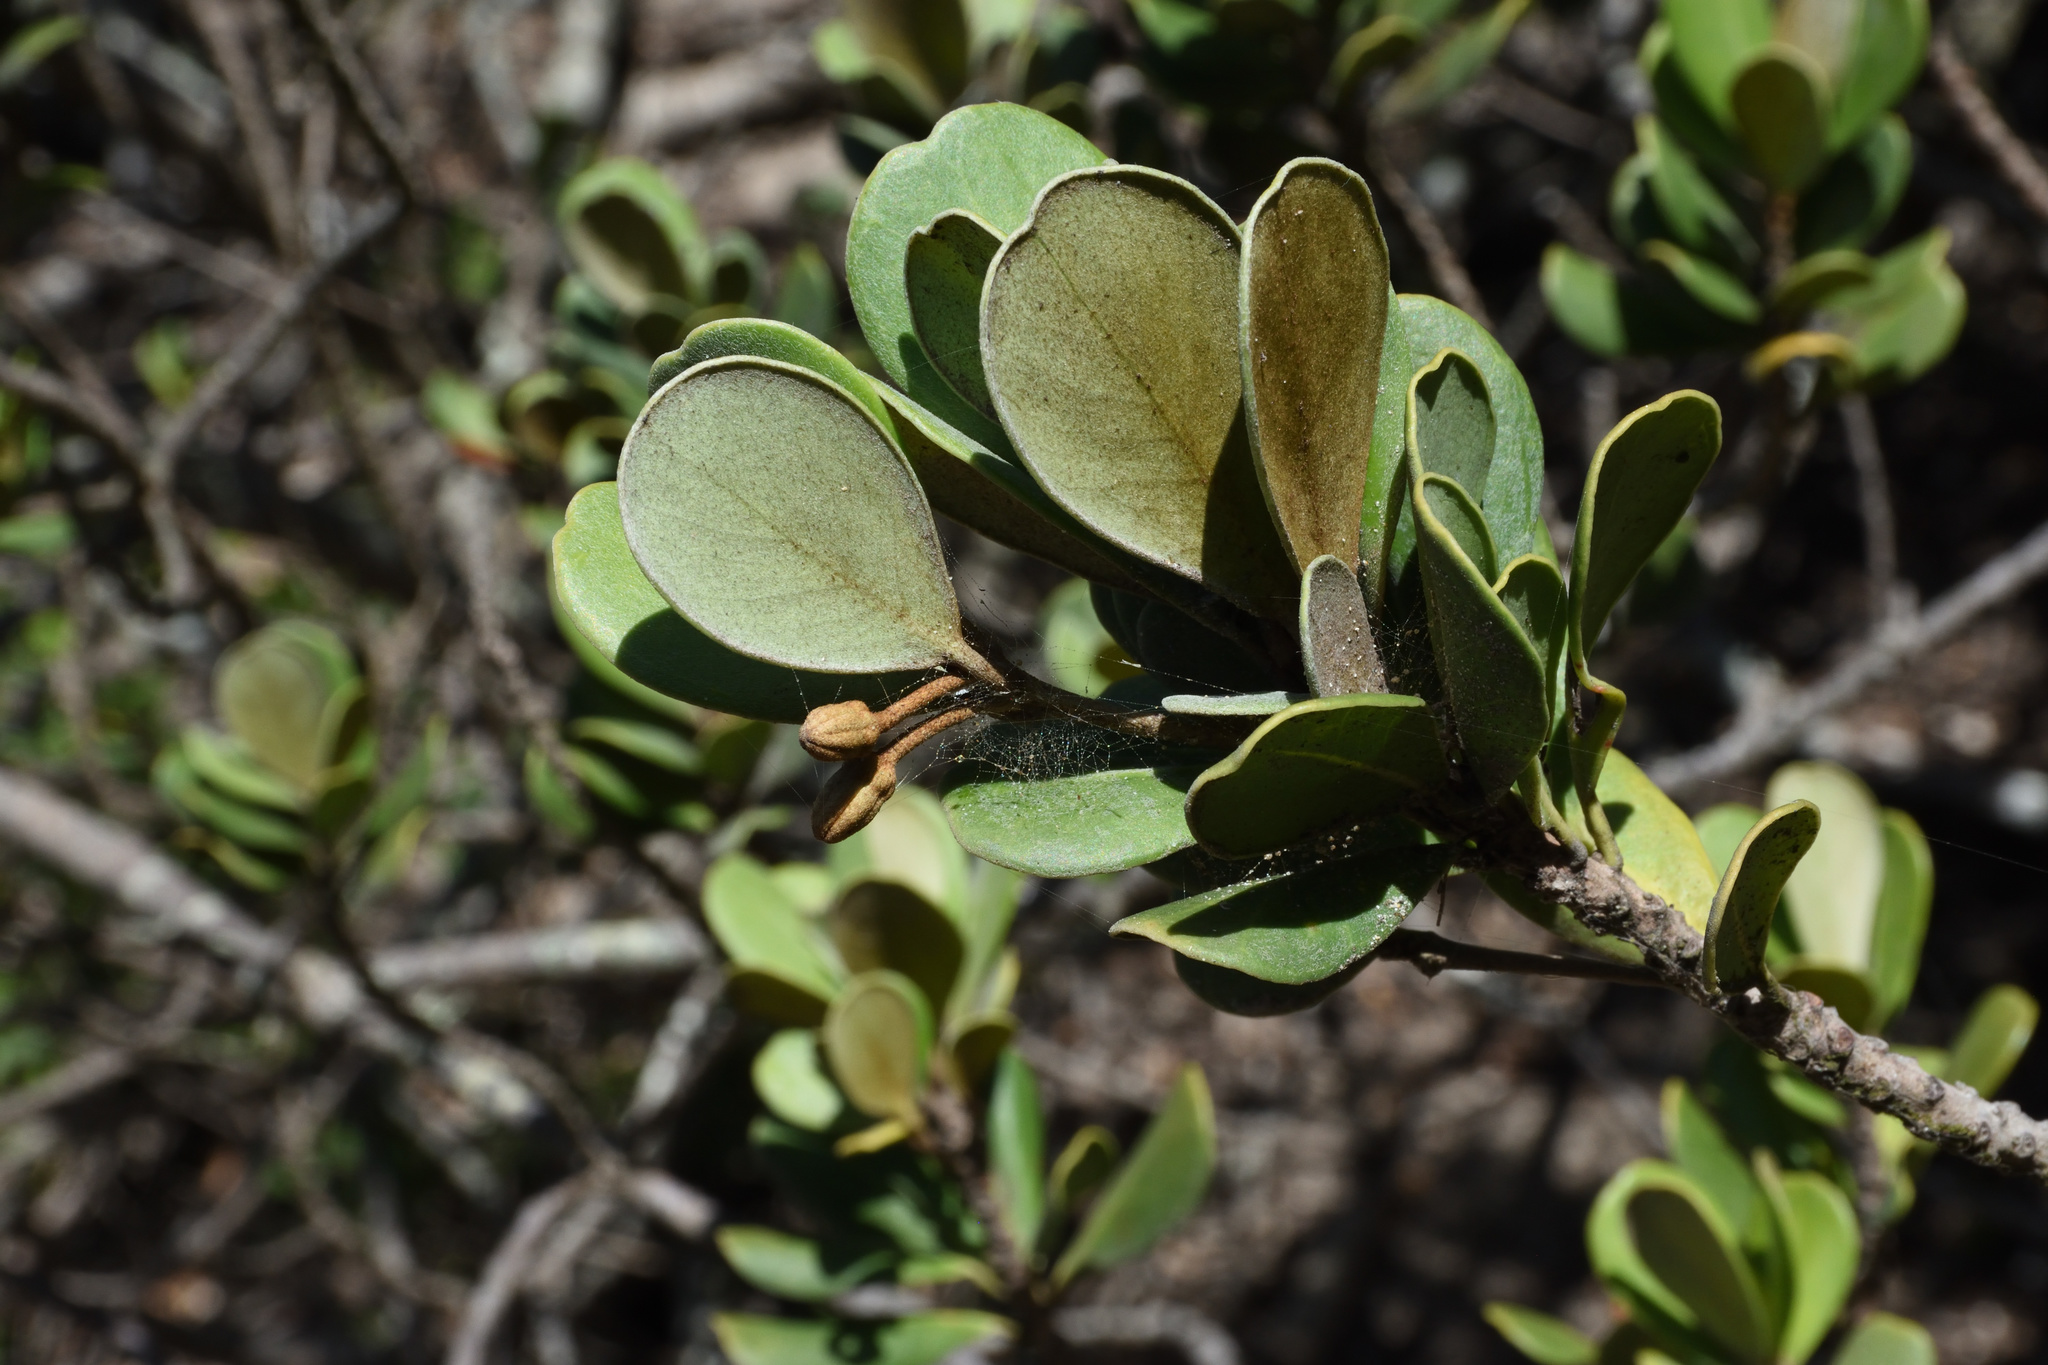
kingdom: Plantae
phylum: Tracheophyta
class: Magnoliopsida
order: Ericales
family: Sapotaceae
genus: Mimusops
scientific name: Mimusops caffra
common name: Coastal red milkwood
